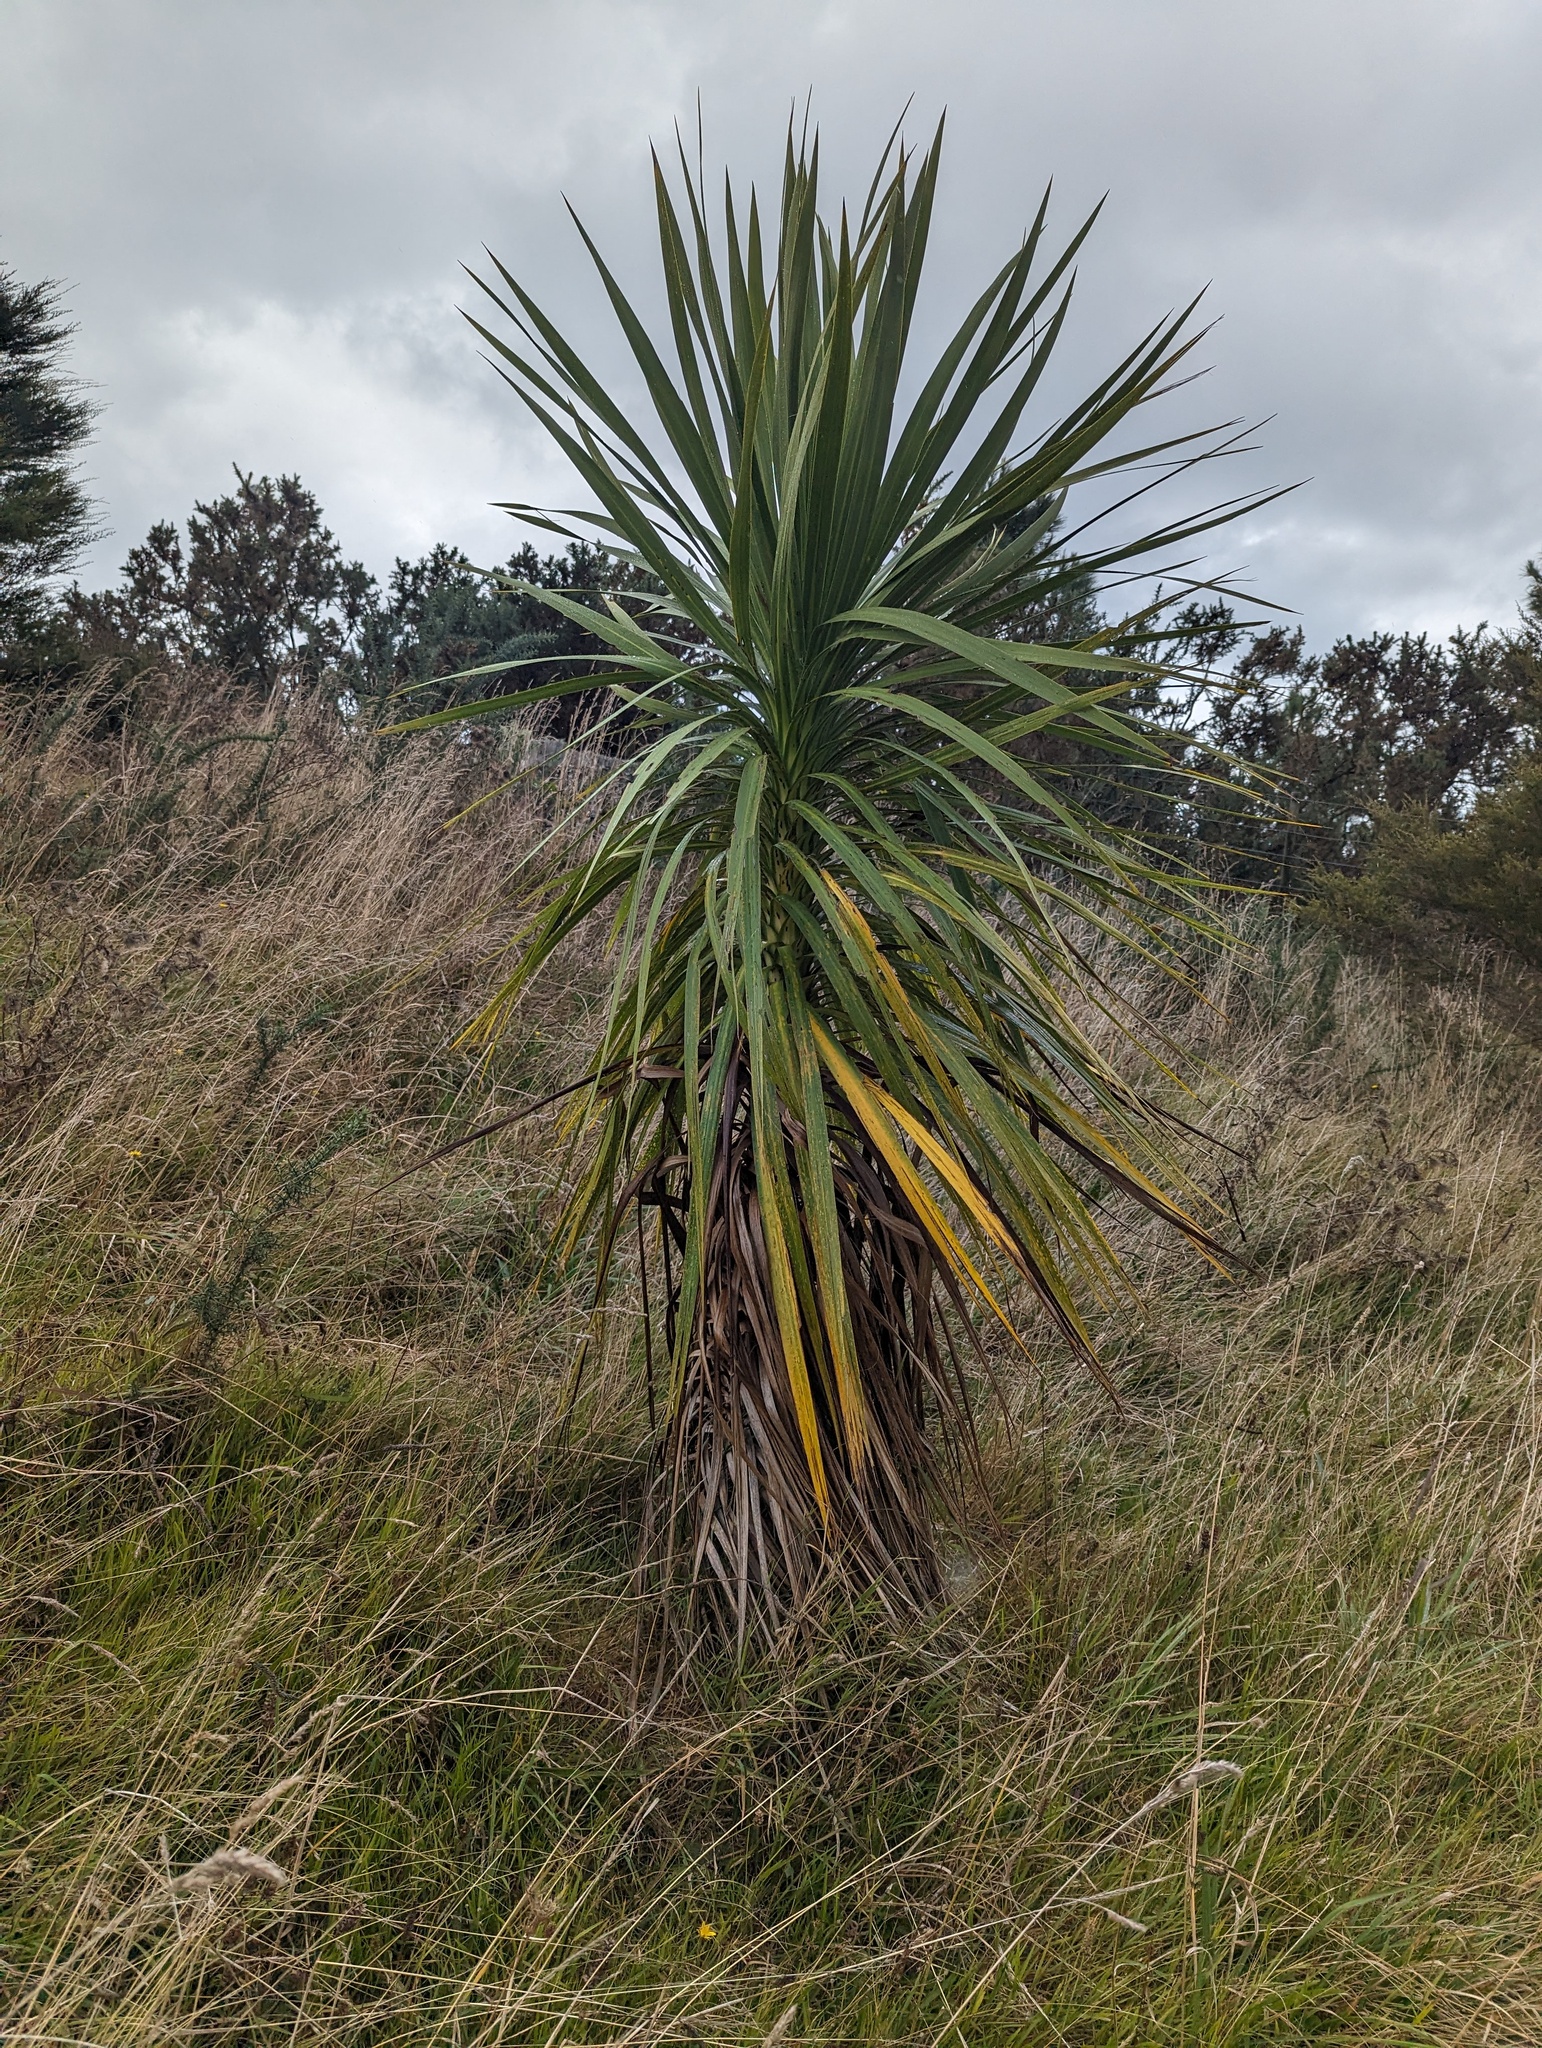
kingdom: Plantae
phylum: Tracheophyta
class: Liliopsida
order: Asparagales
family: Asparagaceae
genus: Cordyline
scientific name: Cordyline australis
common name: Cabbage-palm
